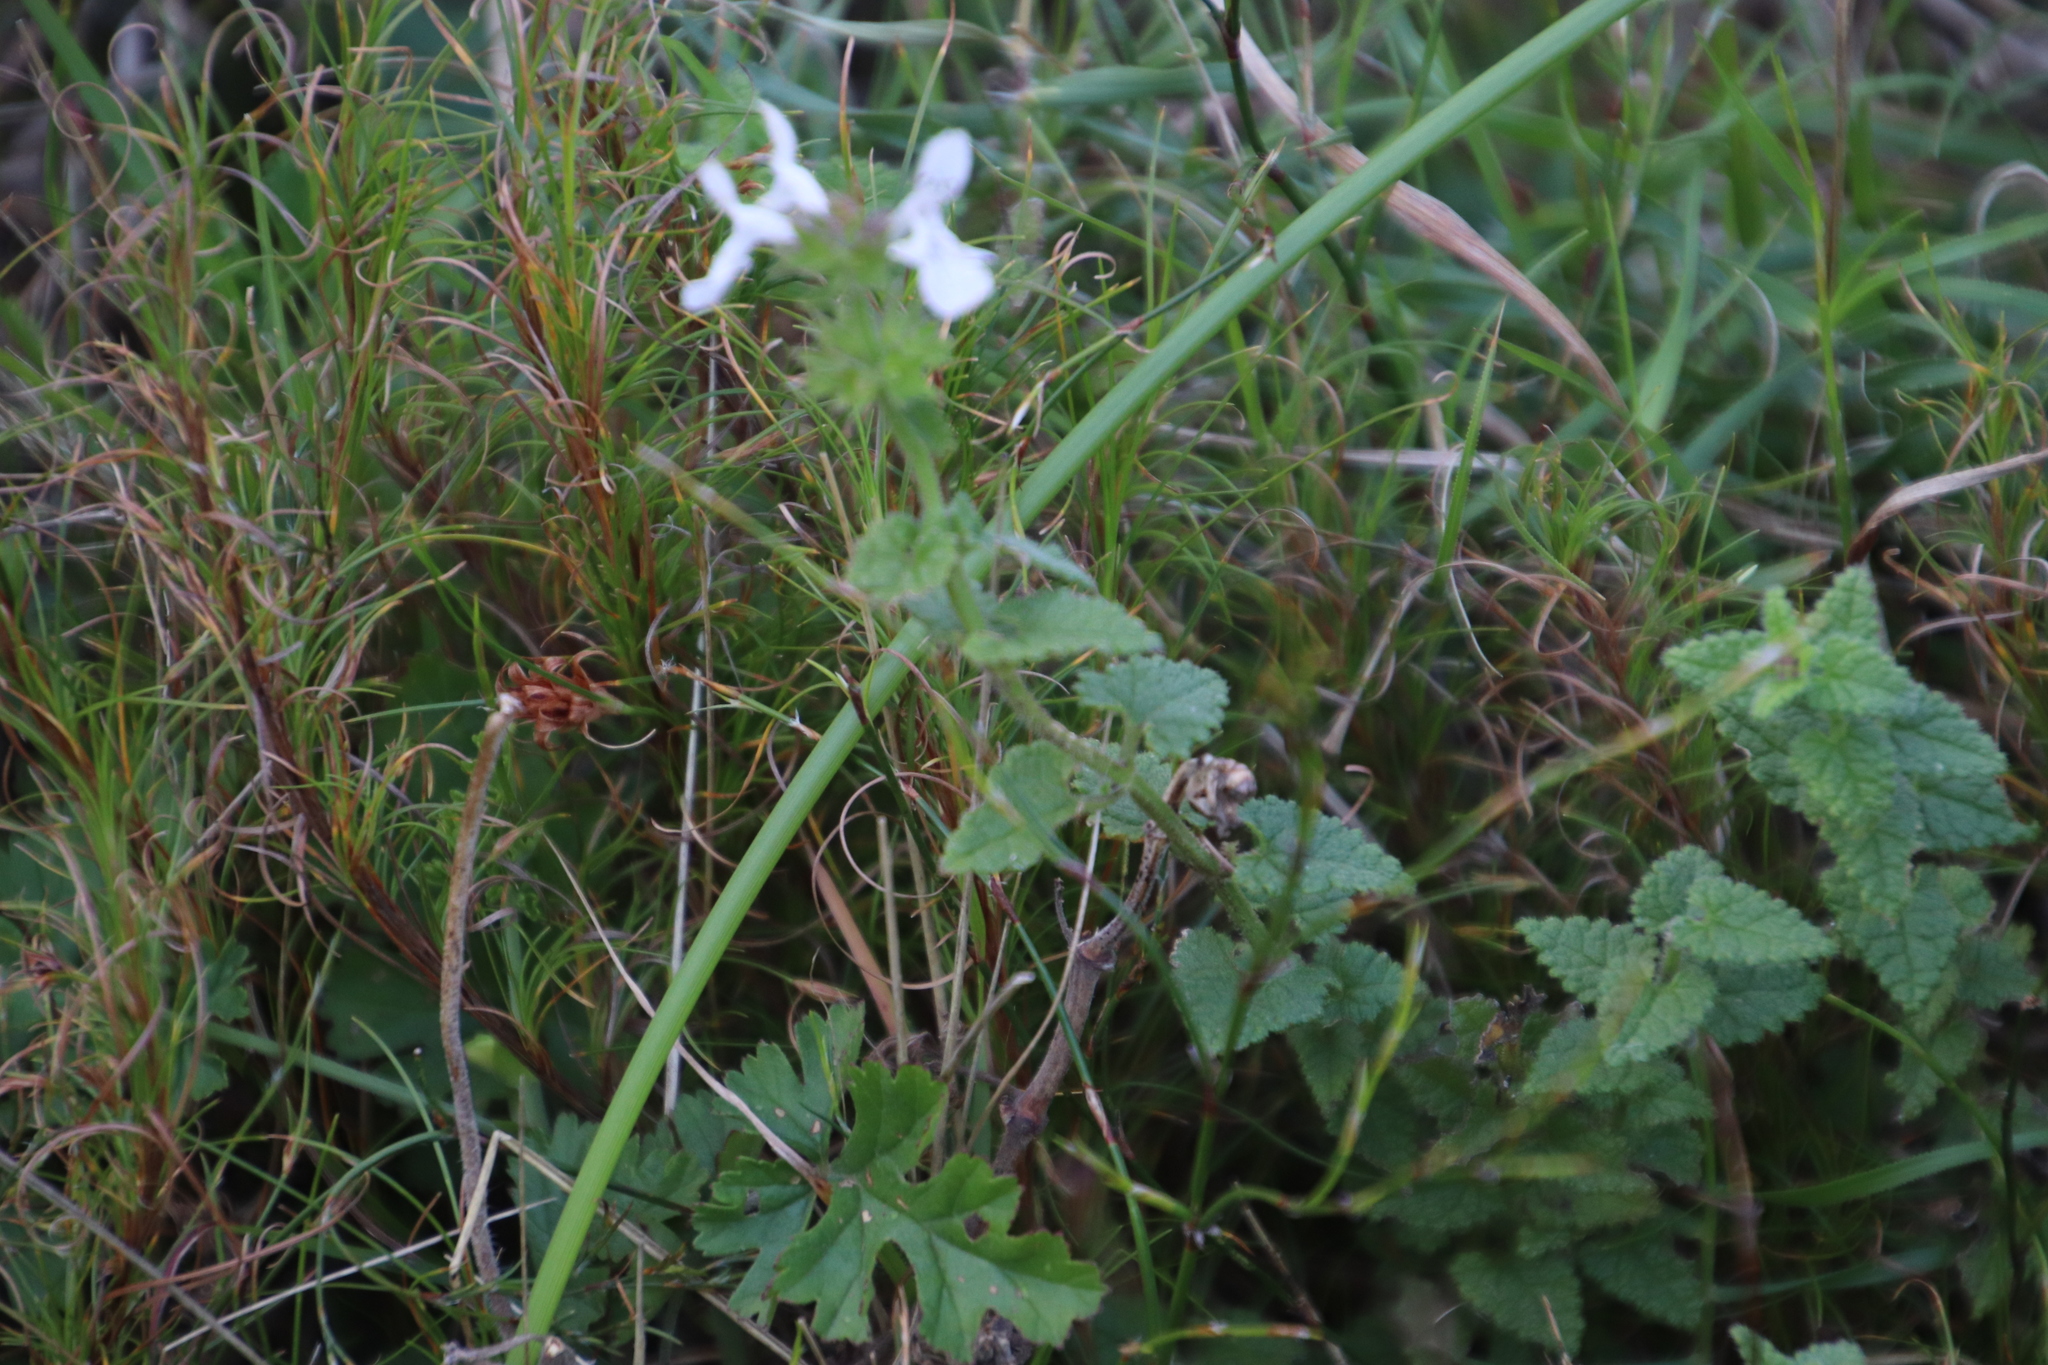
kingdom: Plantae
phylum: Tracheophyta
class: Magnoliopsida
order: Lamiales
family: Lamiaceae
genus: Stachys
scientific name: Stachys aethiopica
